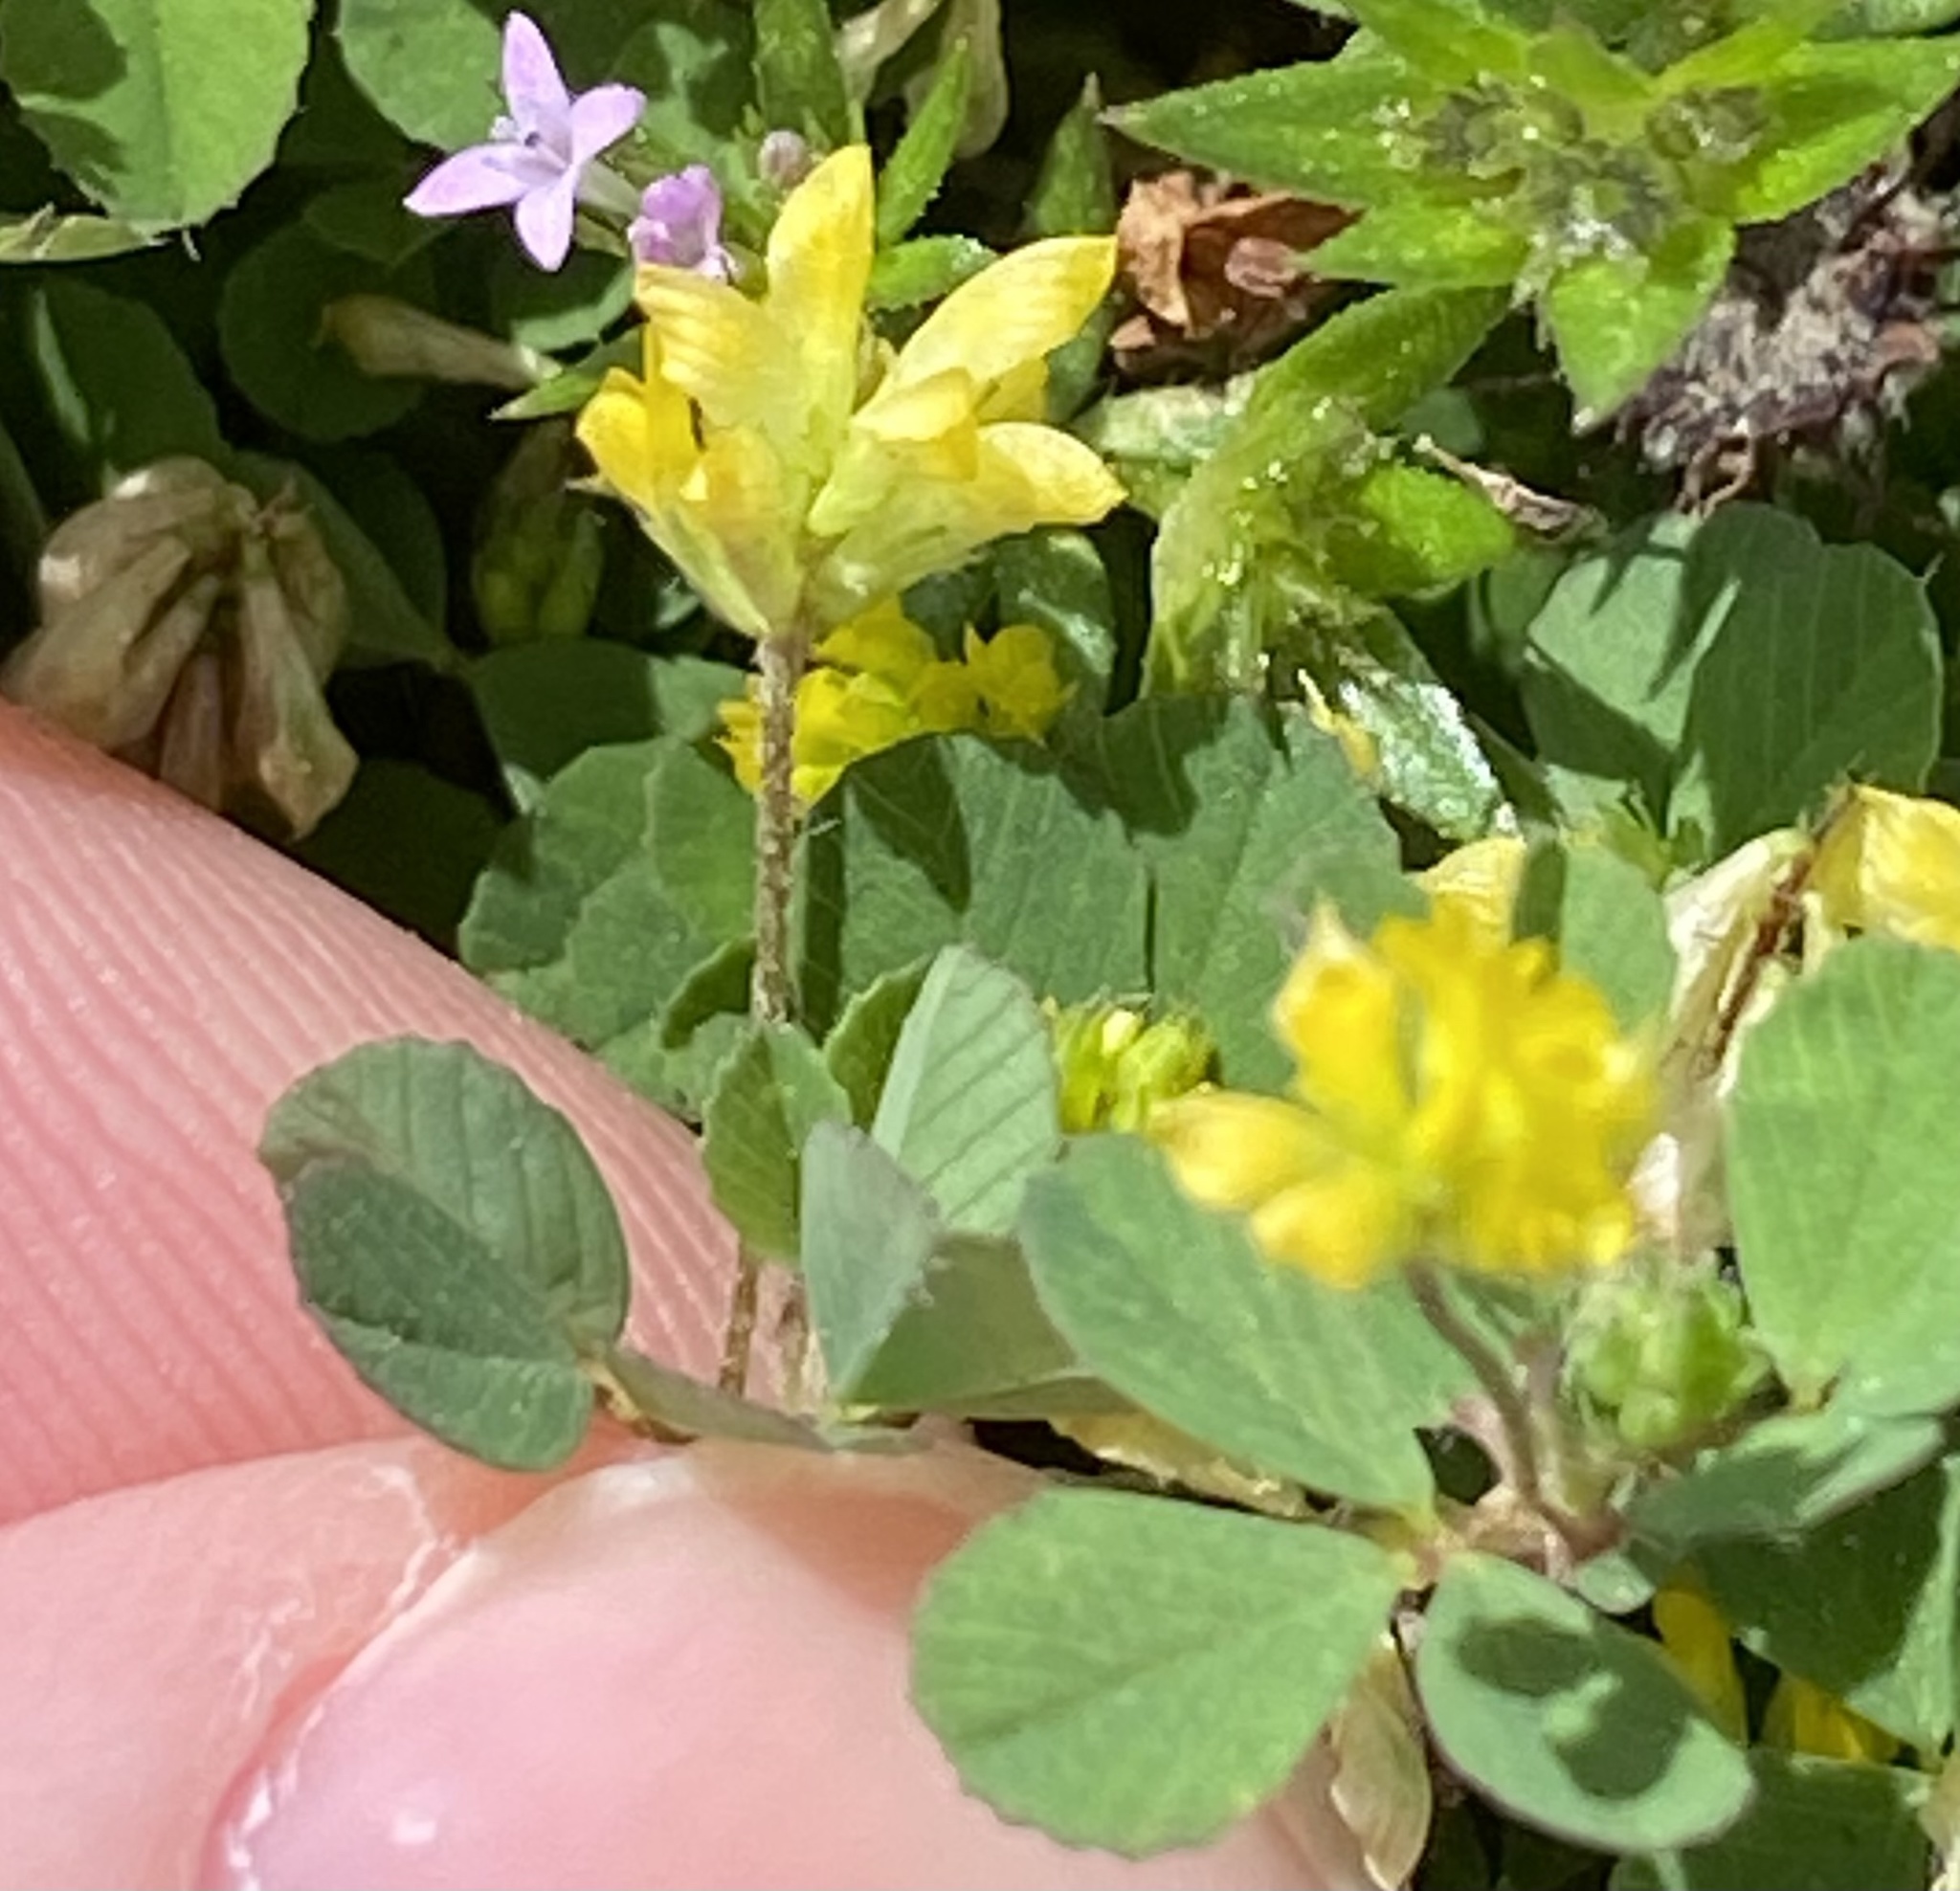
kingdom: Plantae
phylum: Tracheophyta
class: Magnoliopsida
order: Fabales
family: Fabaceae
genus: Trifolium
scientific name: Trifolium dubium
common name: Suckling clover
